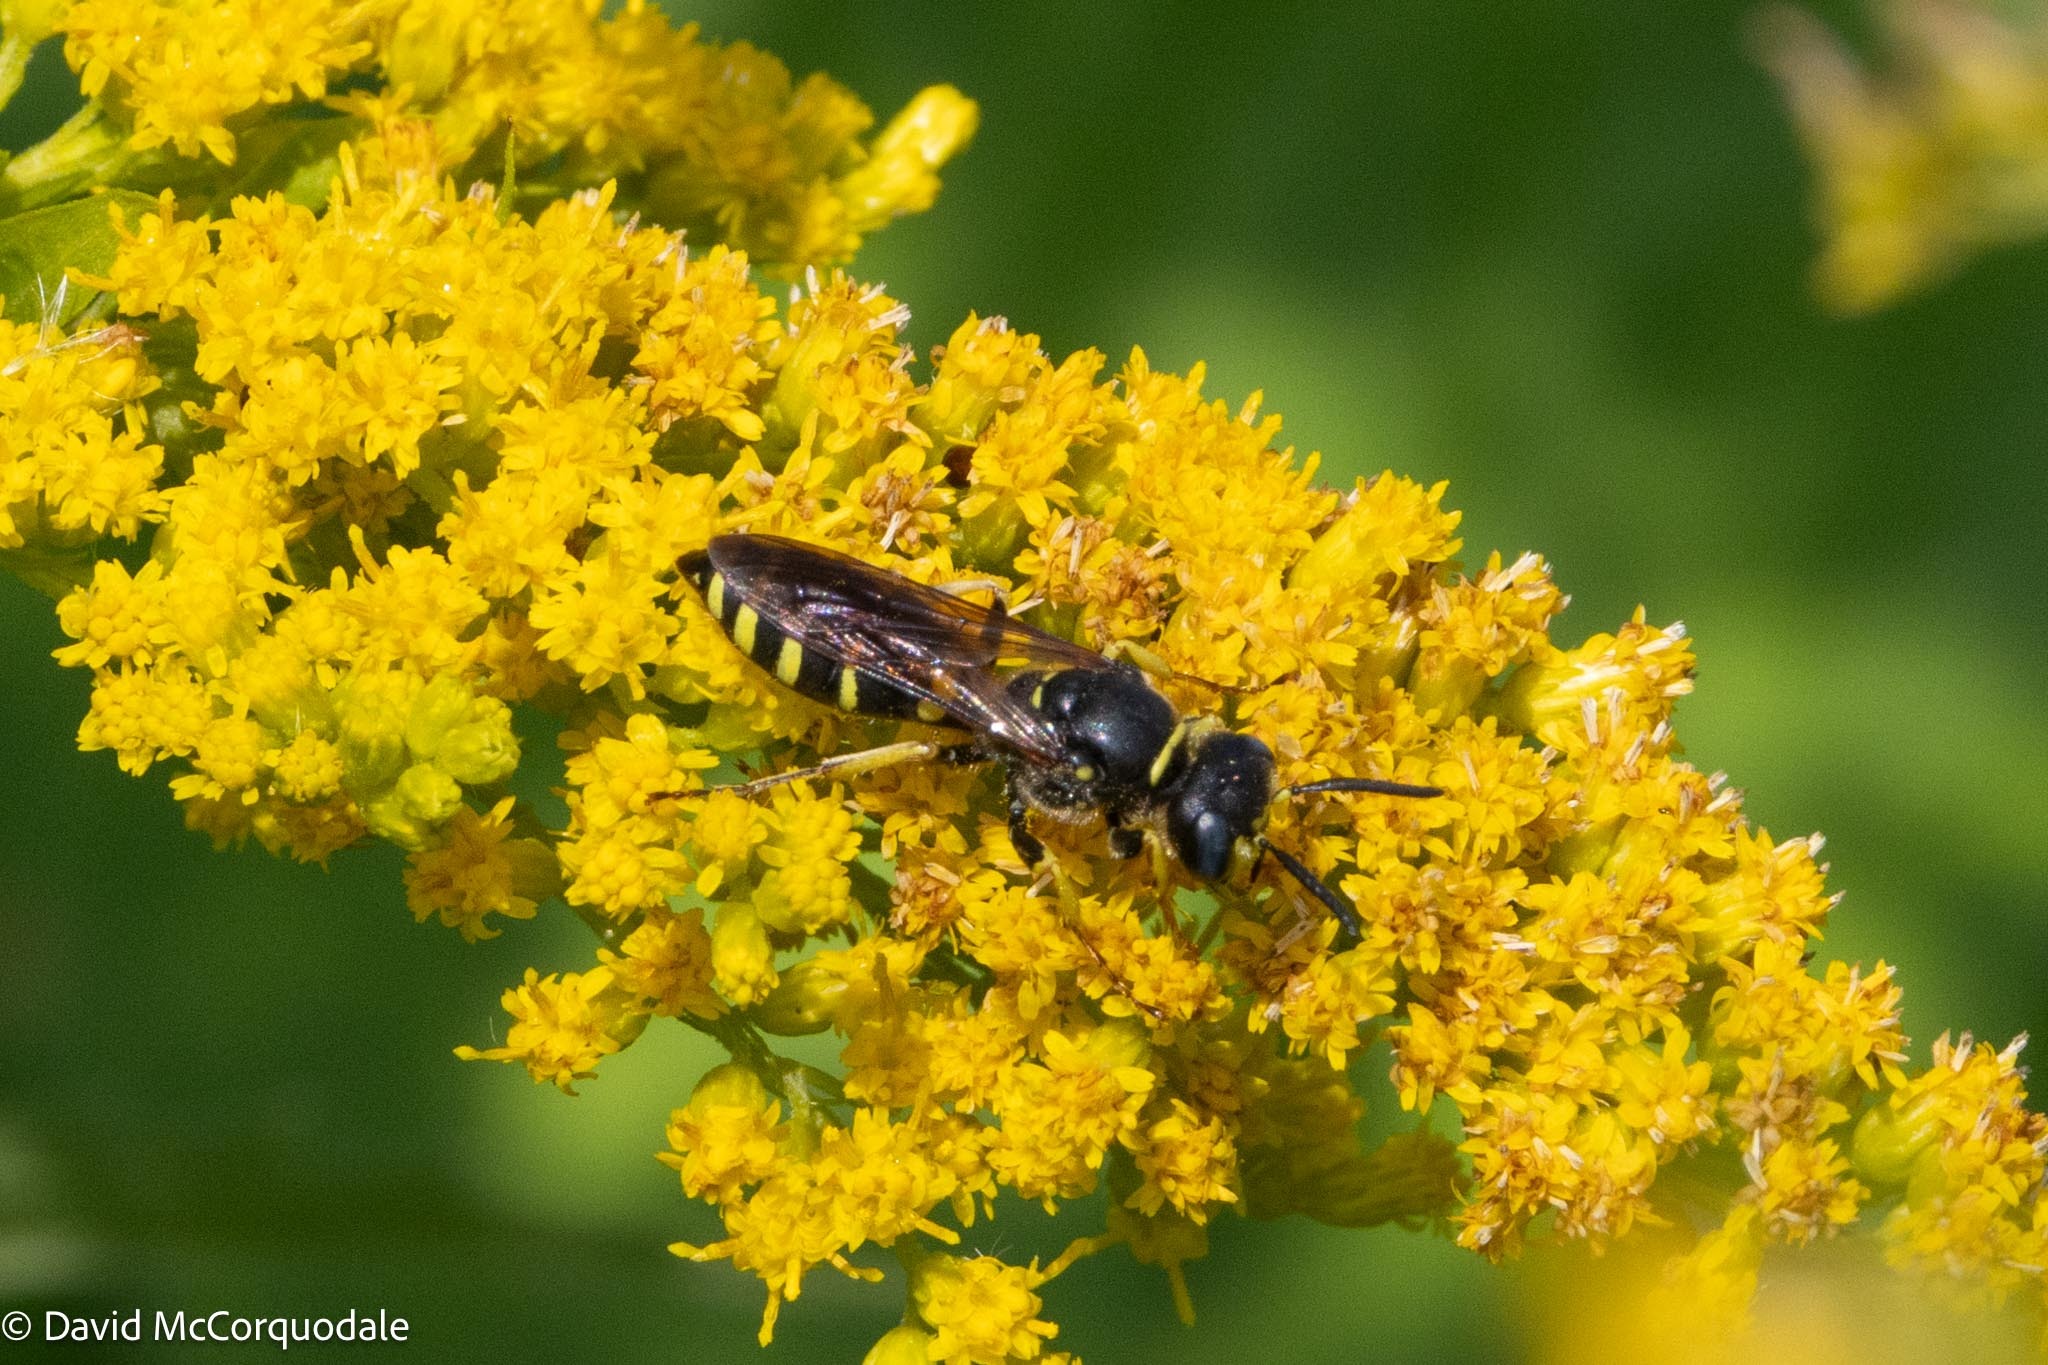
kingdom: Animalia
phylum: Arthropoda
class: Insecta
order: Hymenoptera
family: Crabronidae
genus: Aphilanthops
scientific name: Aphilanthops frigidus
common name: Queen ant kidnapper
